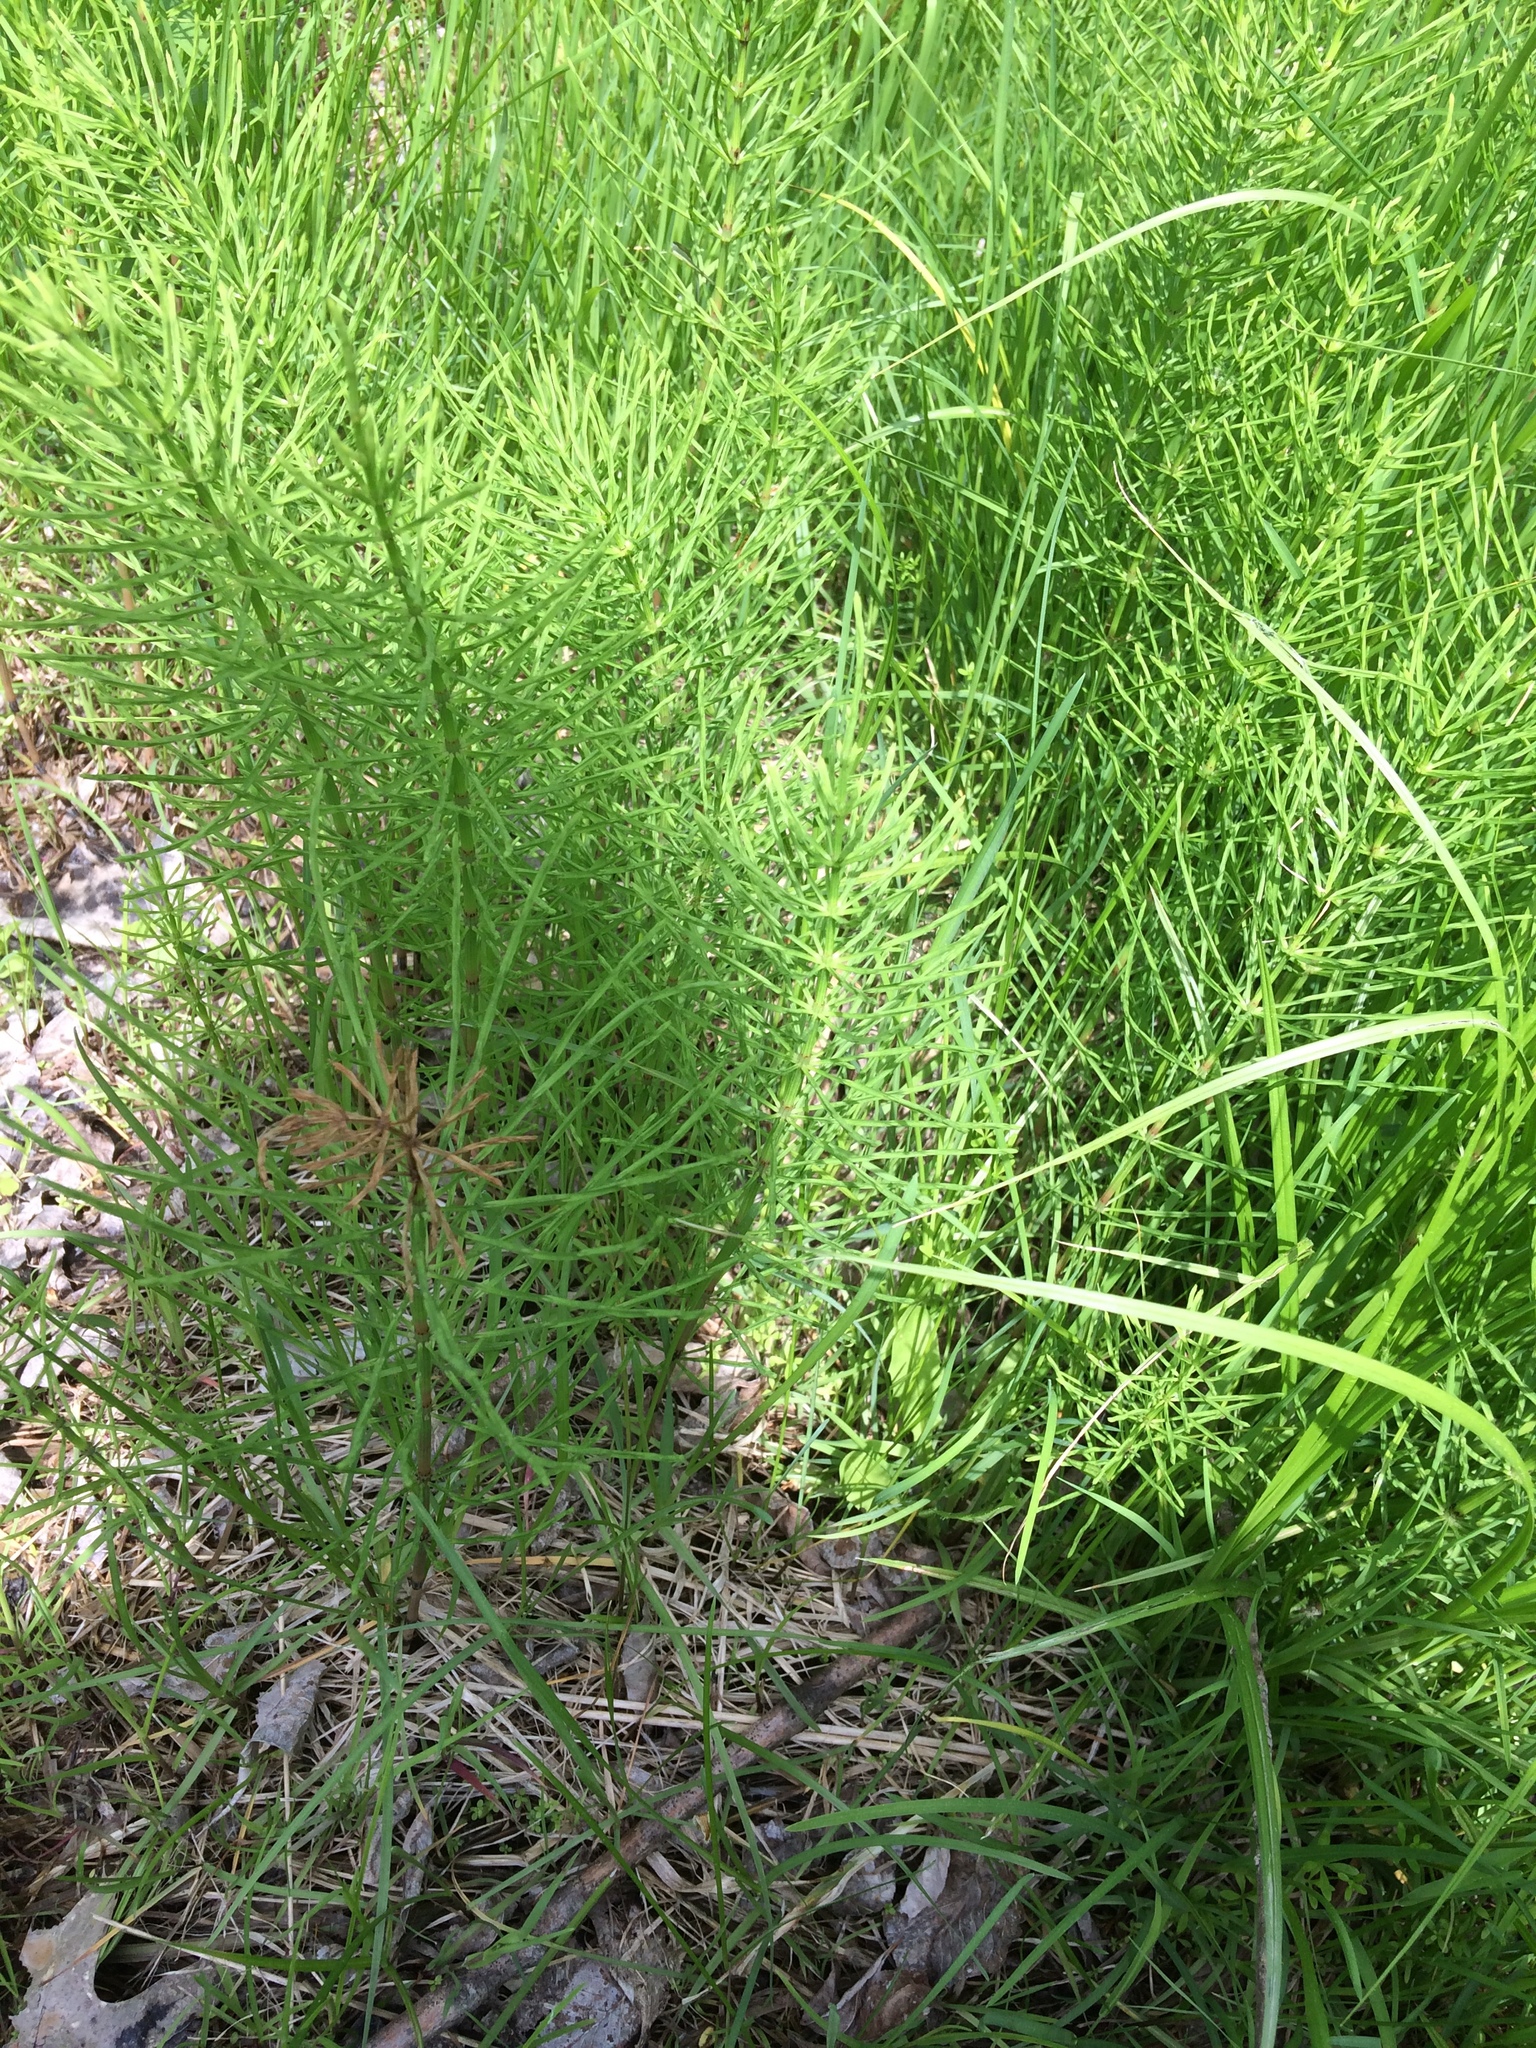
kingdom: Plantae
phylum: Tracheophyta
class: Polypodiopsida
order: Equisetales
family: Equisetaceae
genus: Equisetum
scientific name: Equisetum arvense
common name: Field horsetail
